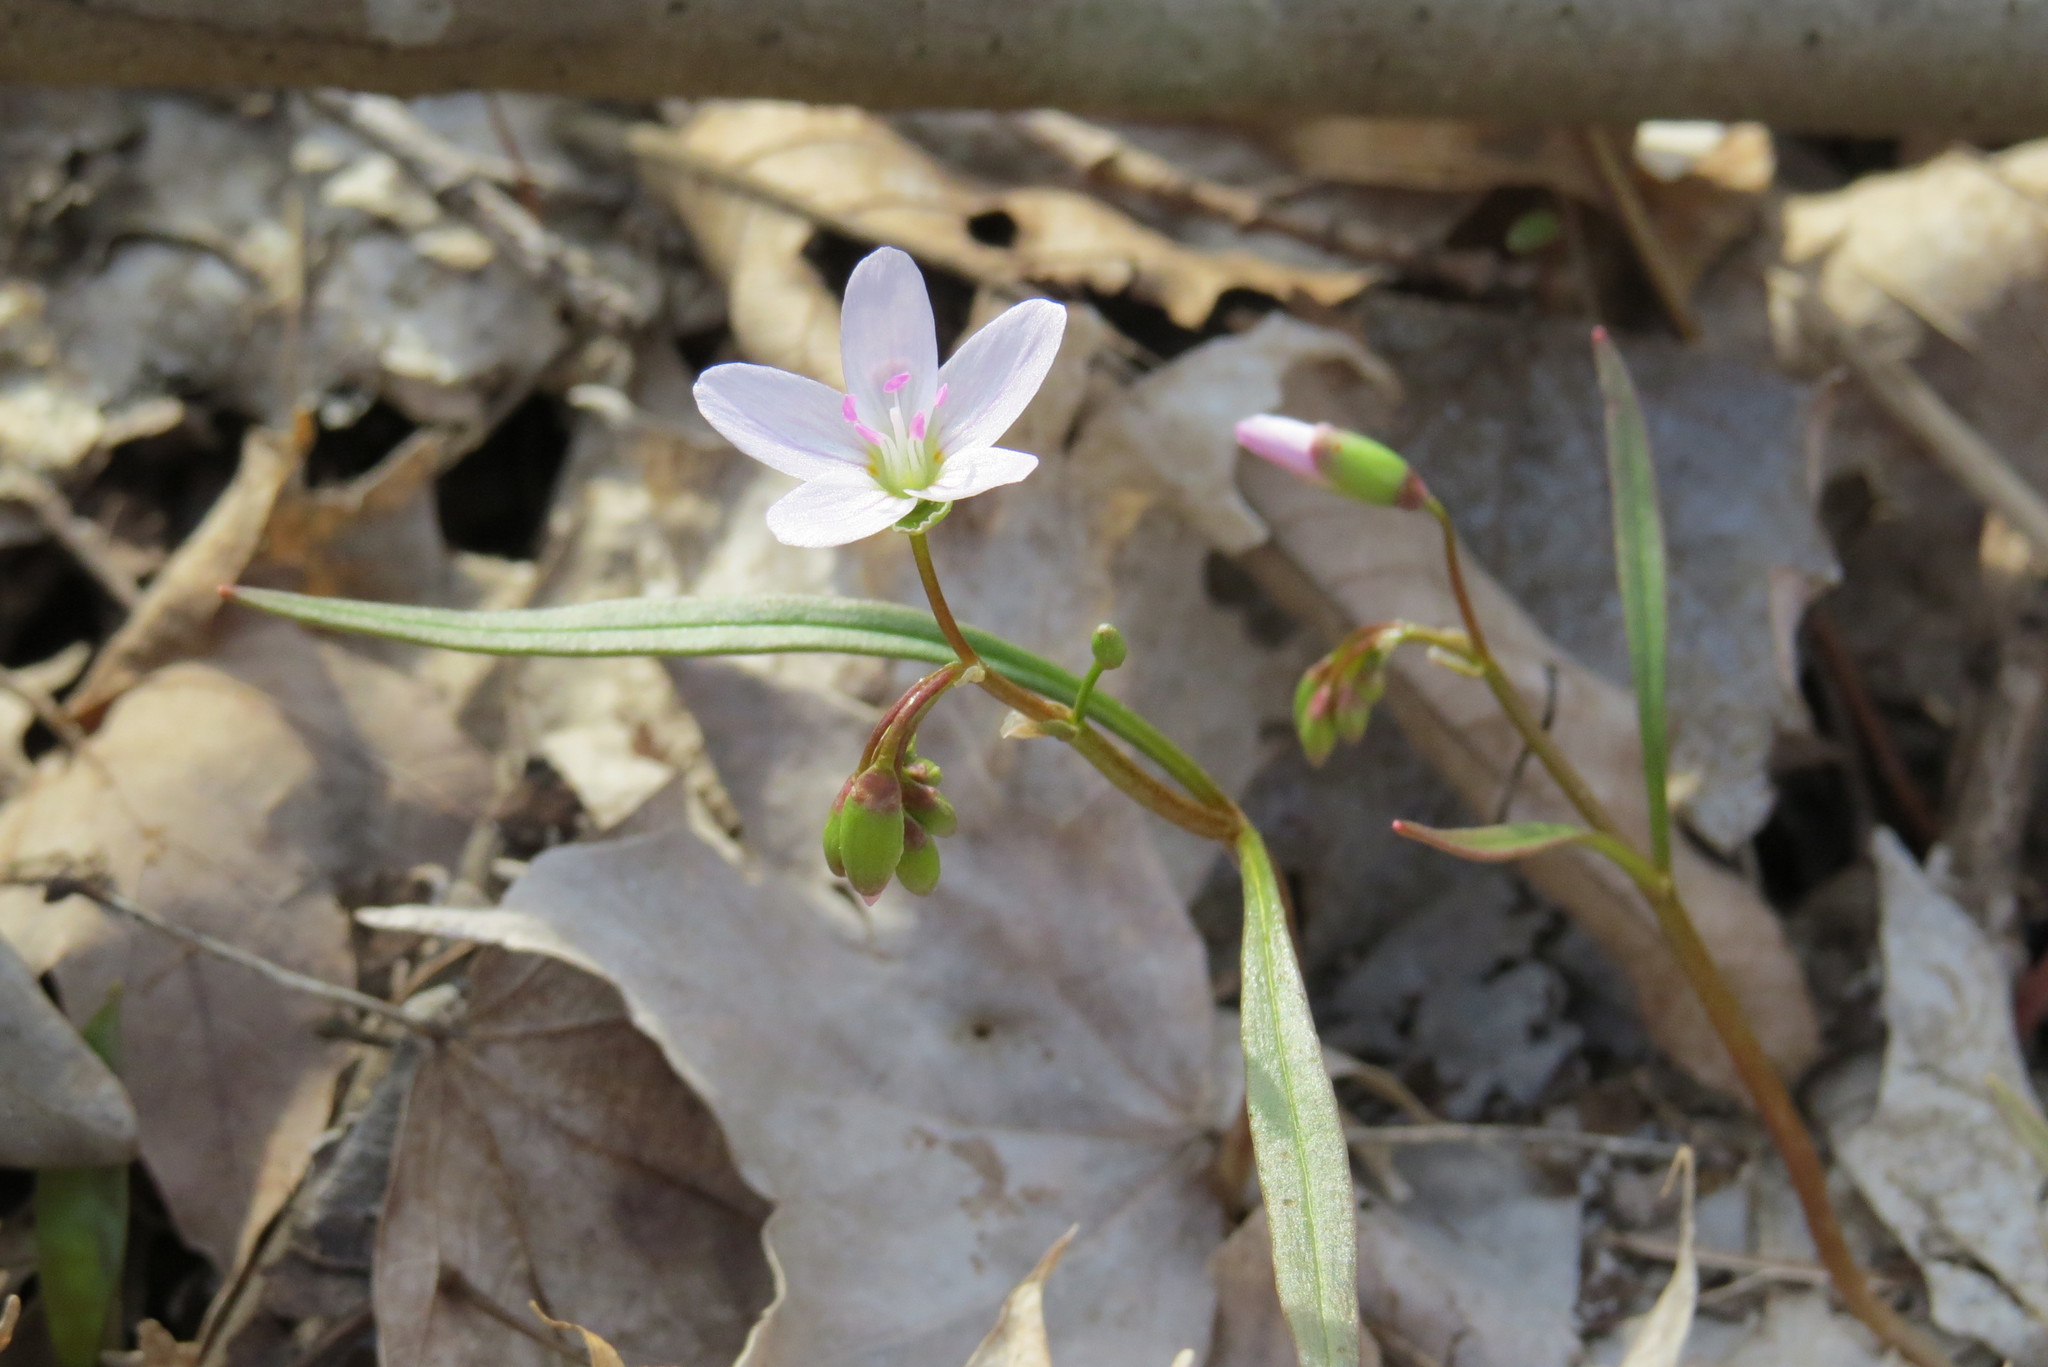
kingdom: Plantae
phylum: Tracheophyta
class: Magnoliopsida
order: Caryophyllales
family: Montiaceae
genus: Claytonia
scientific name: Claytonia virginica
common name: Virginia springbeauty
